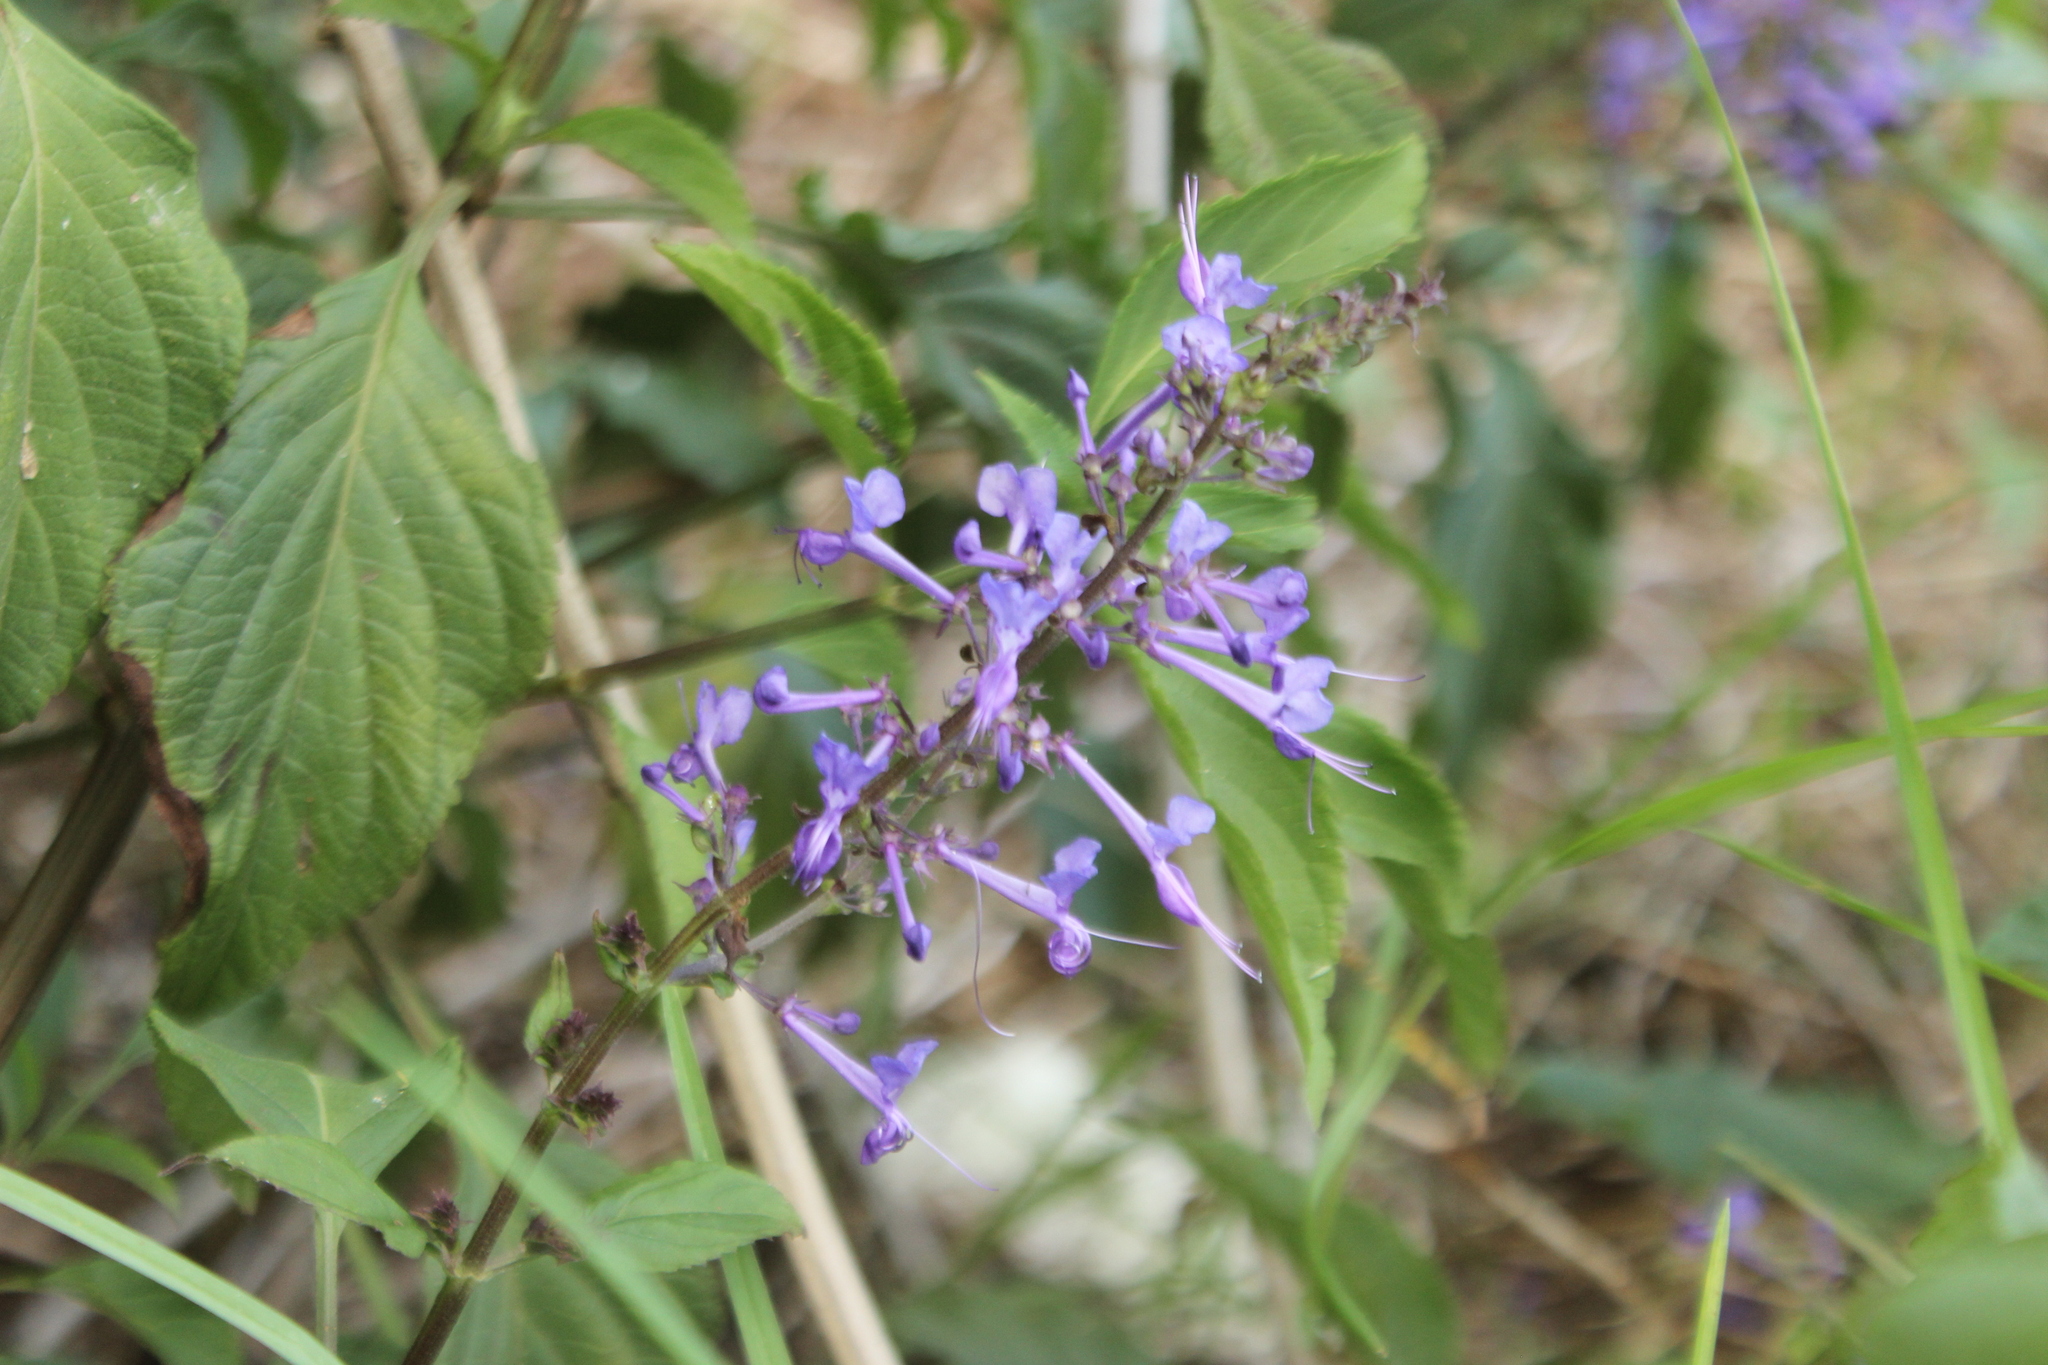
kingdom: Plantae
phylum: Tracheophyta
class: Magnoliopsida
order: Lamiales
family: Lamiaceae
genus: Plectranthus
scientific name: Plectranthus ecklonii
